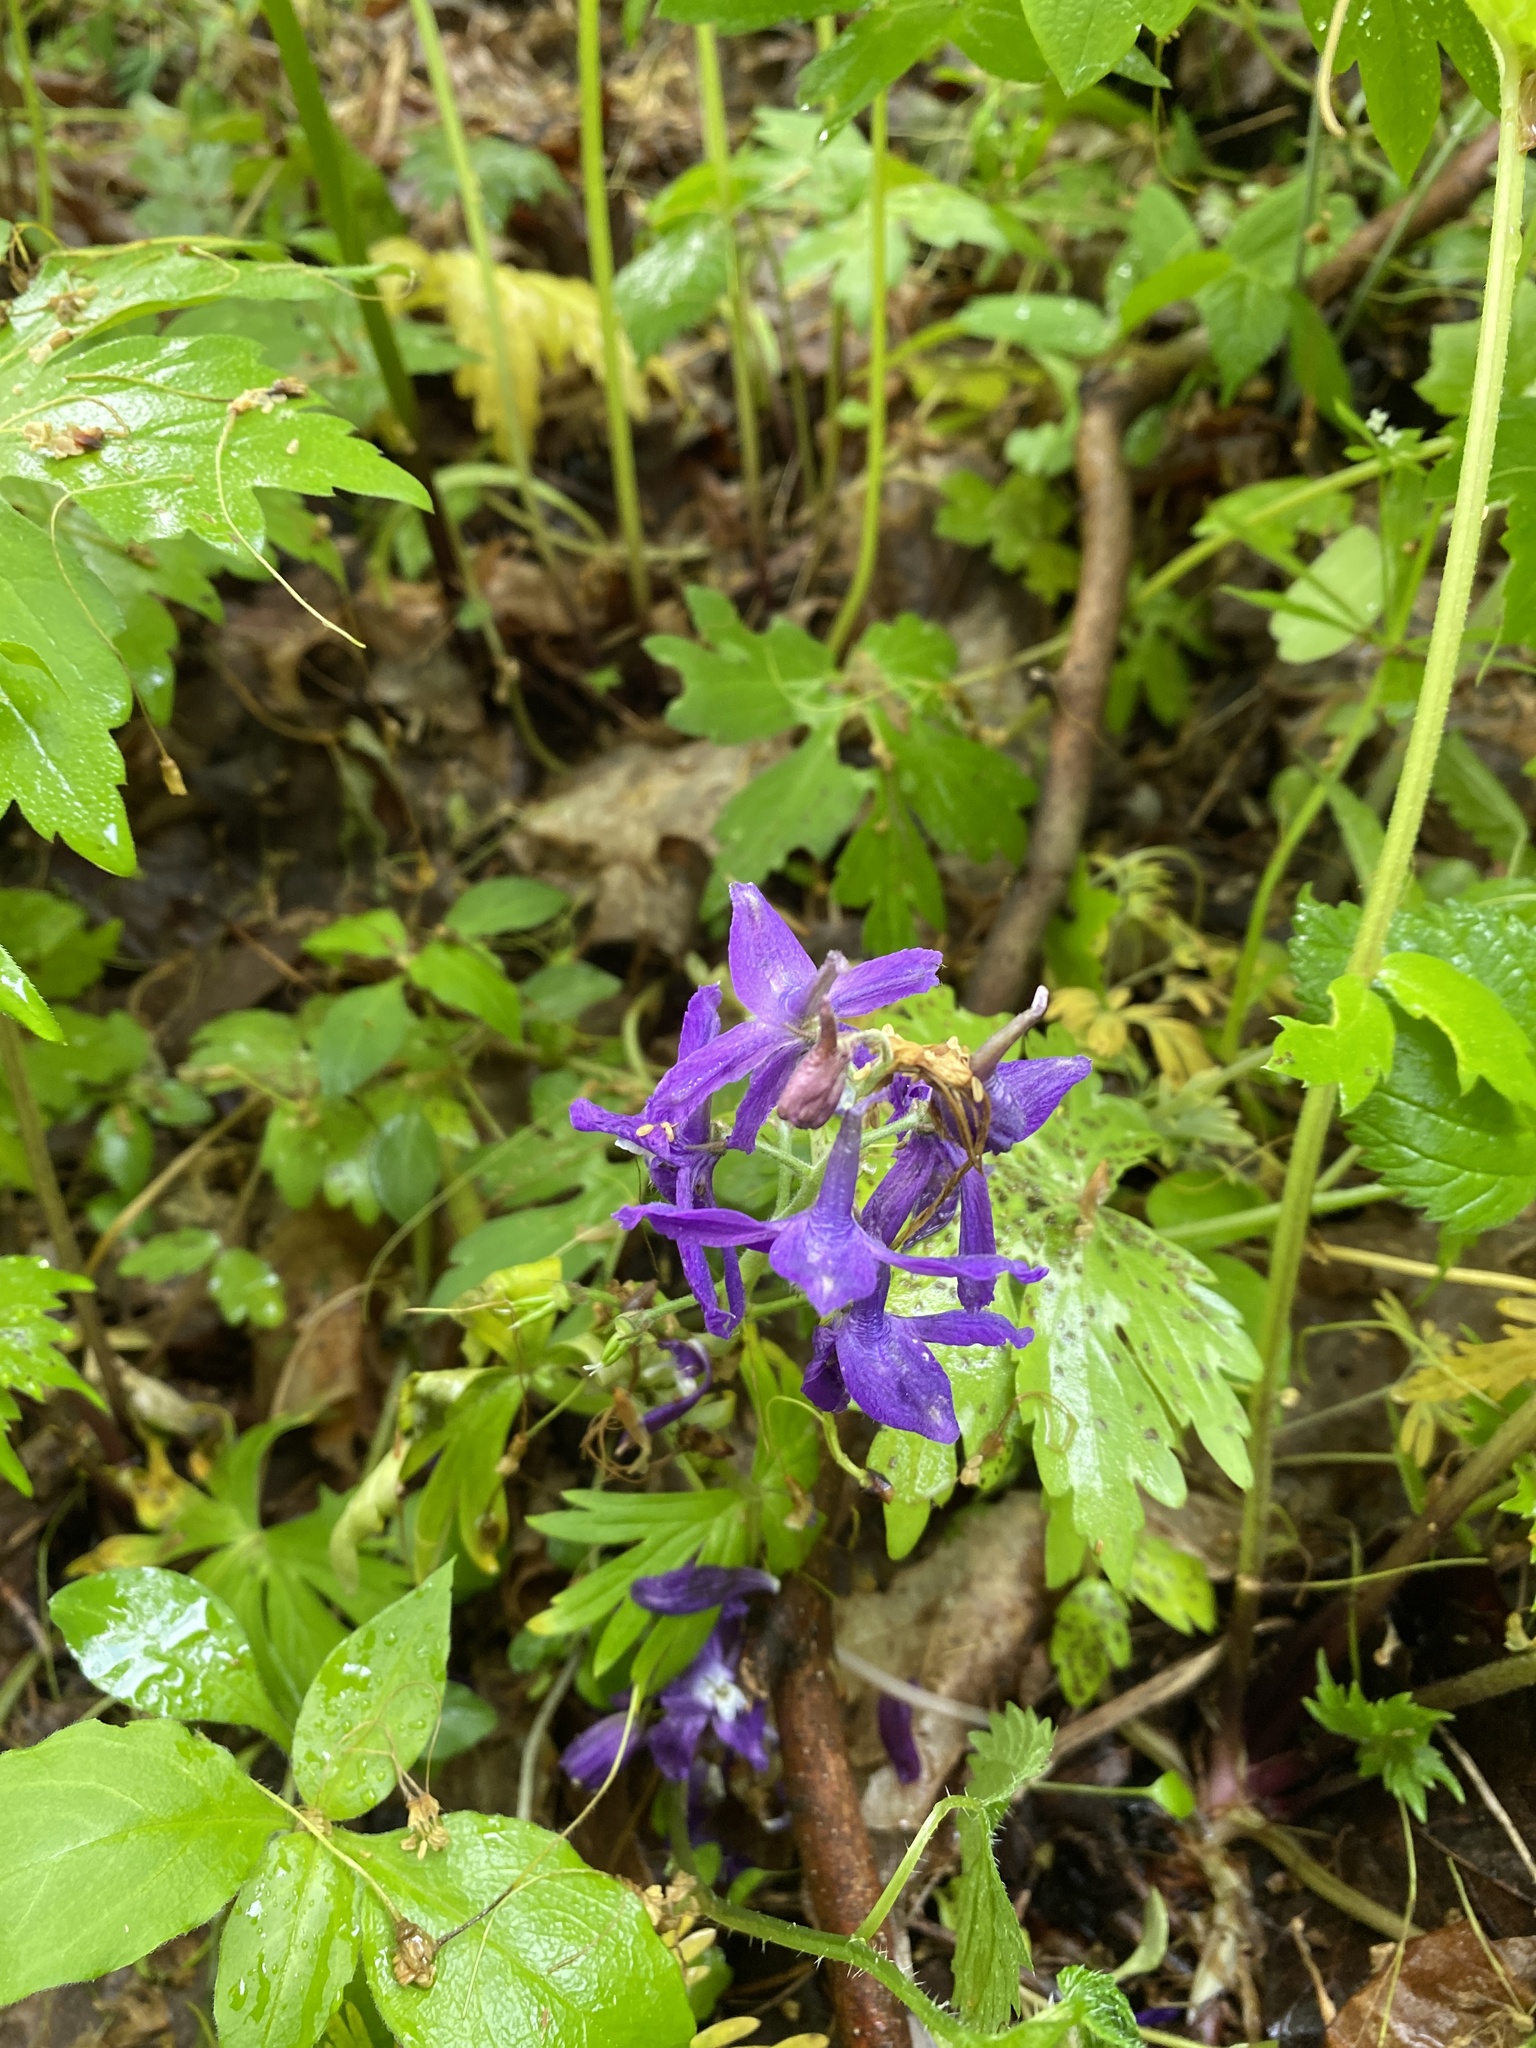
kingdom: Plantae
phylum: Tracheophyta
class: Magnoliopsida
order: Ranunculales
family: Ranunculaceae
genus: Delphinium
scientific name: Delphinium tricorne
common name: Dwarf larkspur
